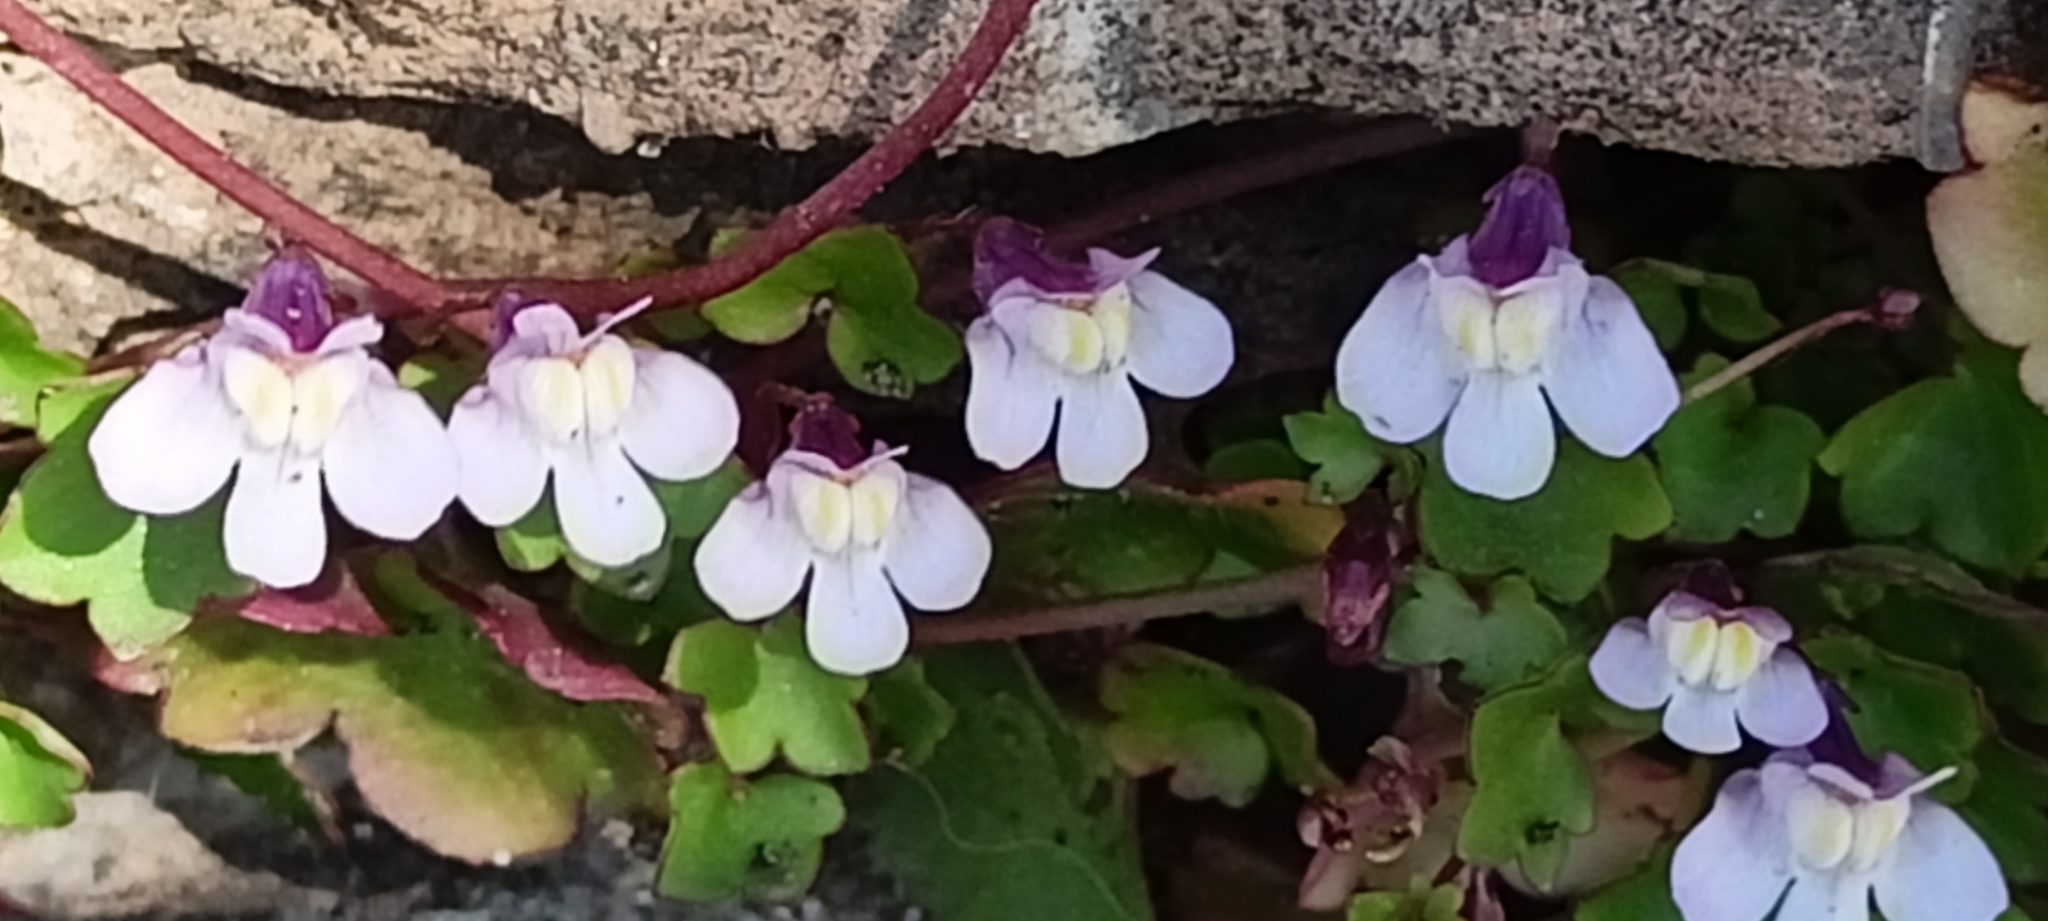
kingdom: Plantae
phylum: Tracheophyta
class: Magnoliopsida
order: Lamiales
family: Plantaginaceae
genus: Cymbalaria
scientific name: Cymbalaria muralis
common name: Ivy-leaved toadflax
